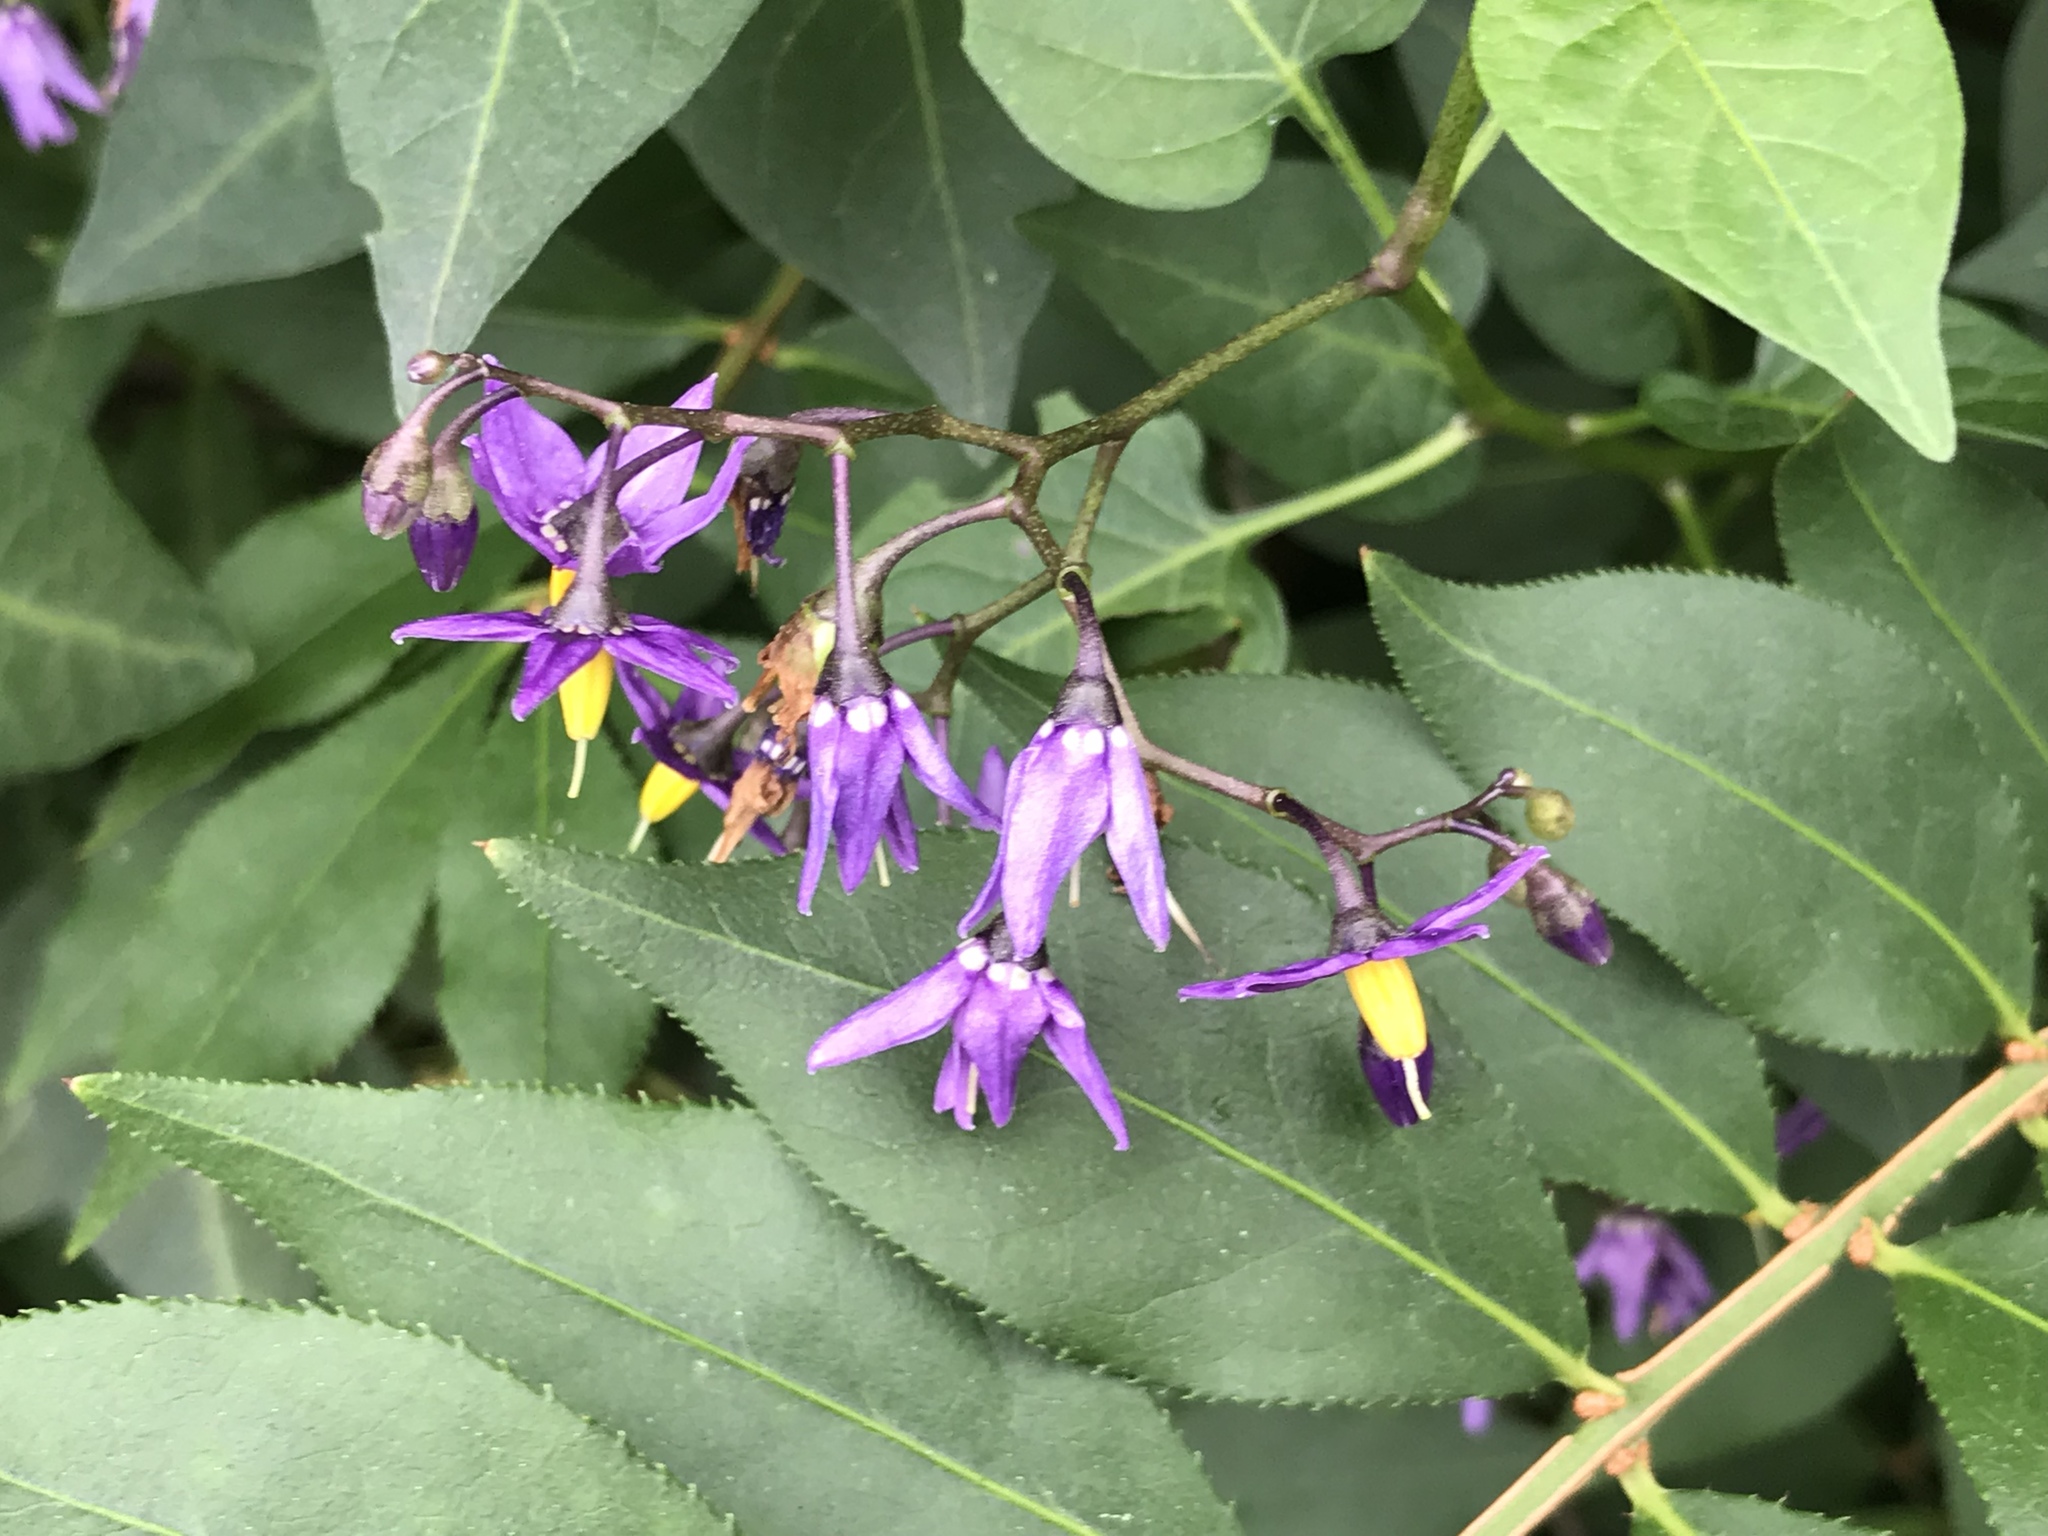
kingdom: Plantae
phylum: Tracheophyta
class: Magnoliopsida
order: Solanales
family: Solanaceae
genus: Solanum
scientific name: Solanum dulcamara
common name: Climbing nightshade
